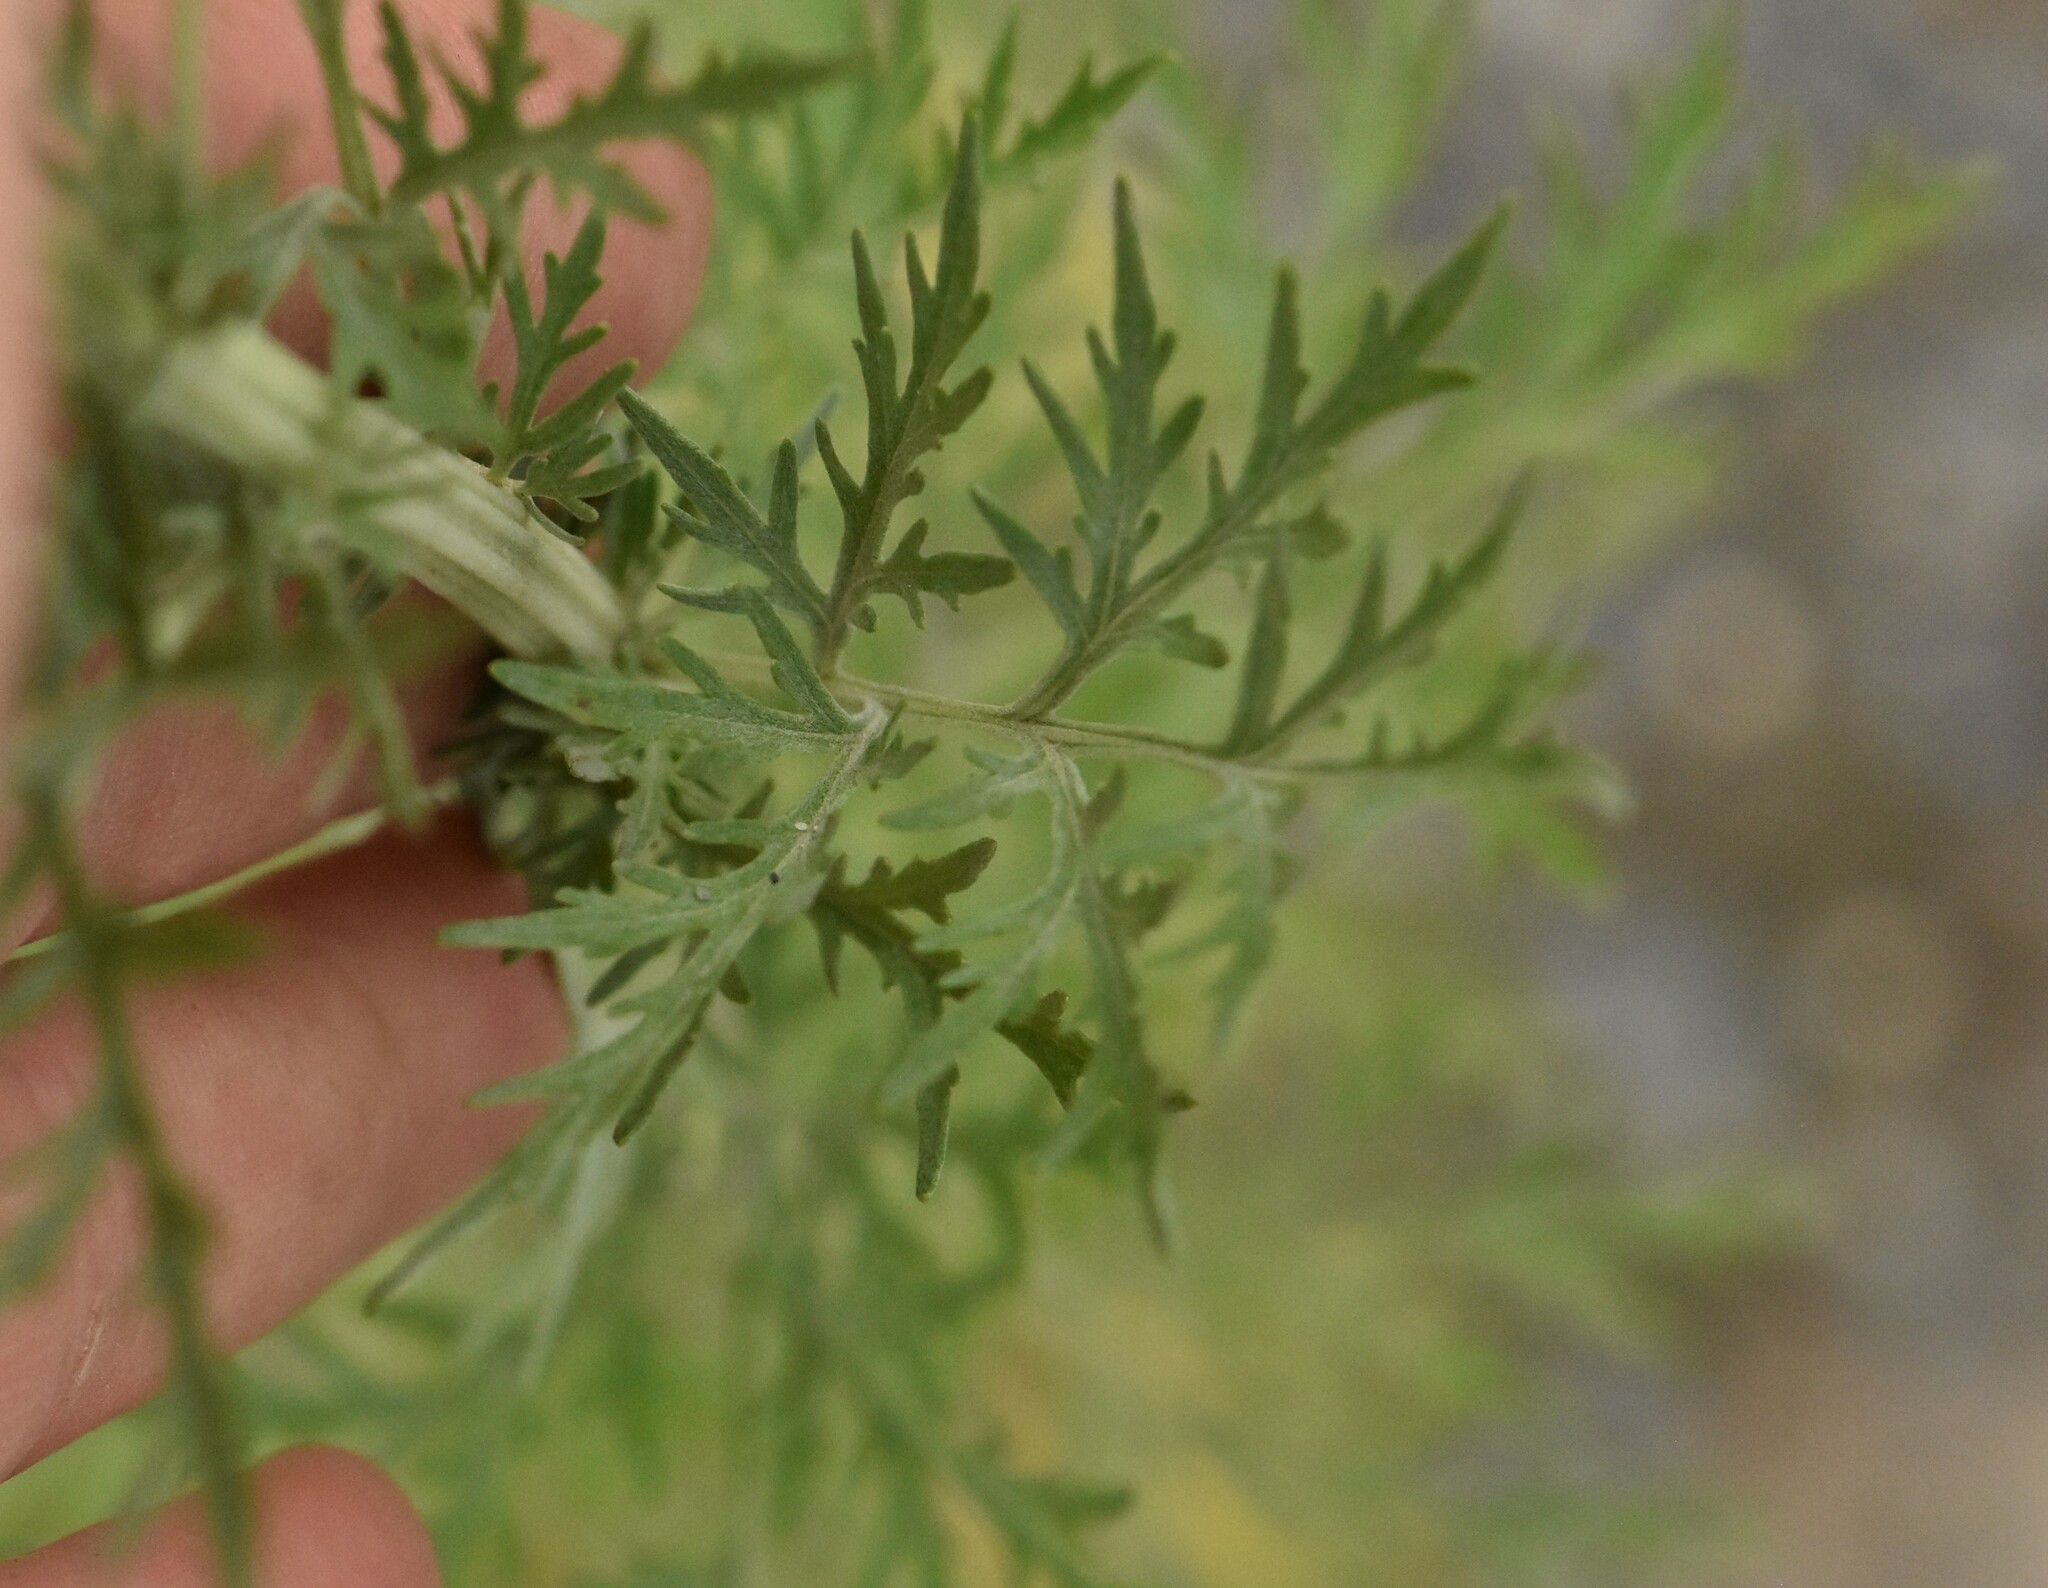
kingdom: Plantae
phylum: Tracheophyta
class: Magnoliopsida
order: Asterales
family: Asteraceae
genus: Artemisia
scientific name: Artemisia sieversiana
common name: Sieversian wormwood
